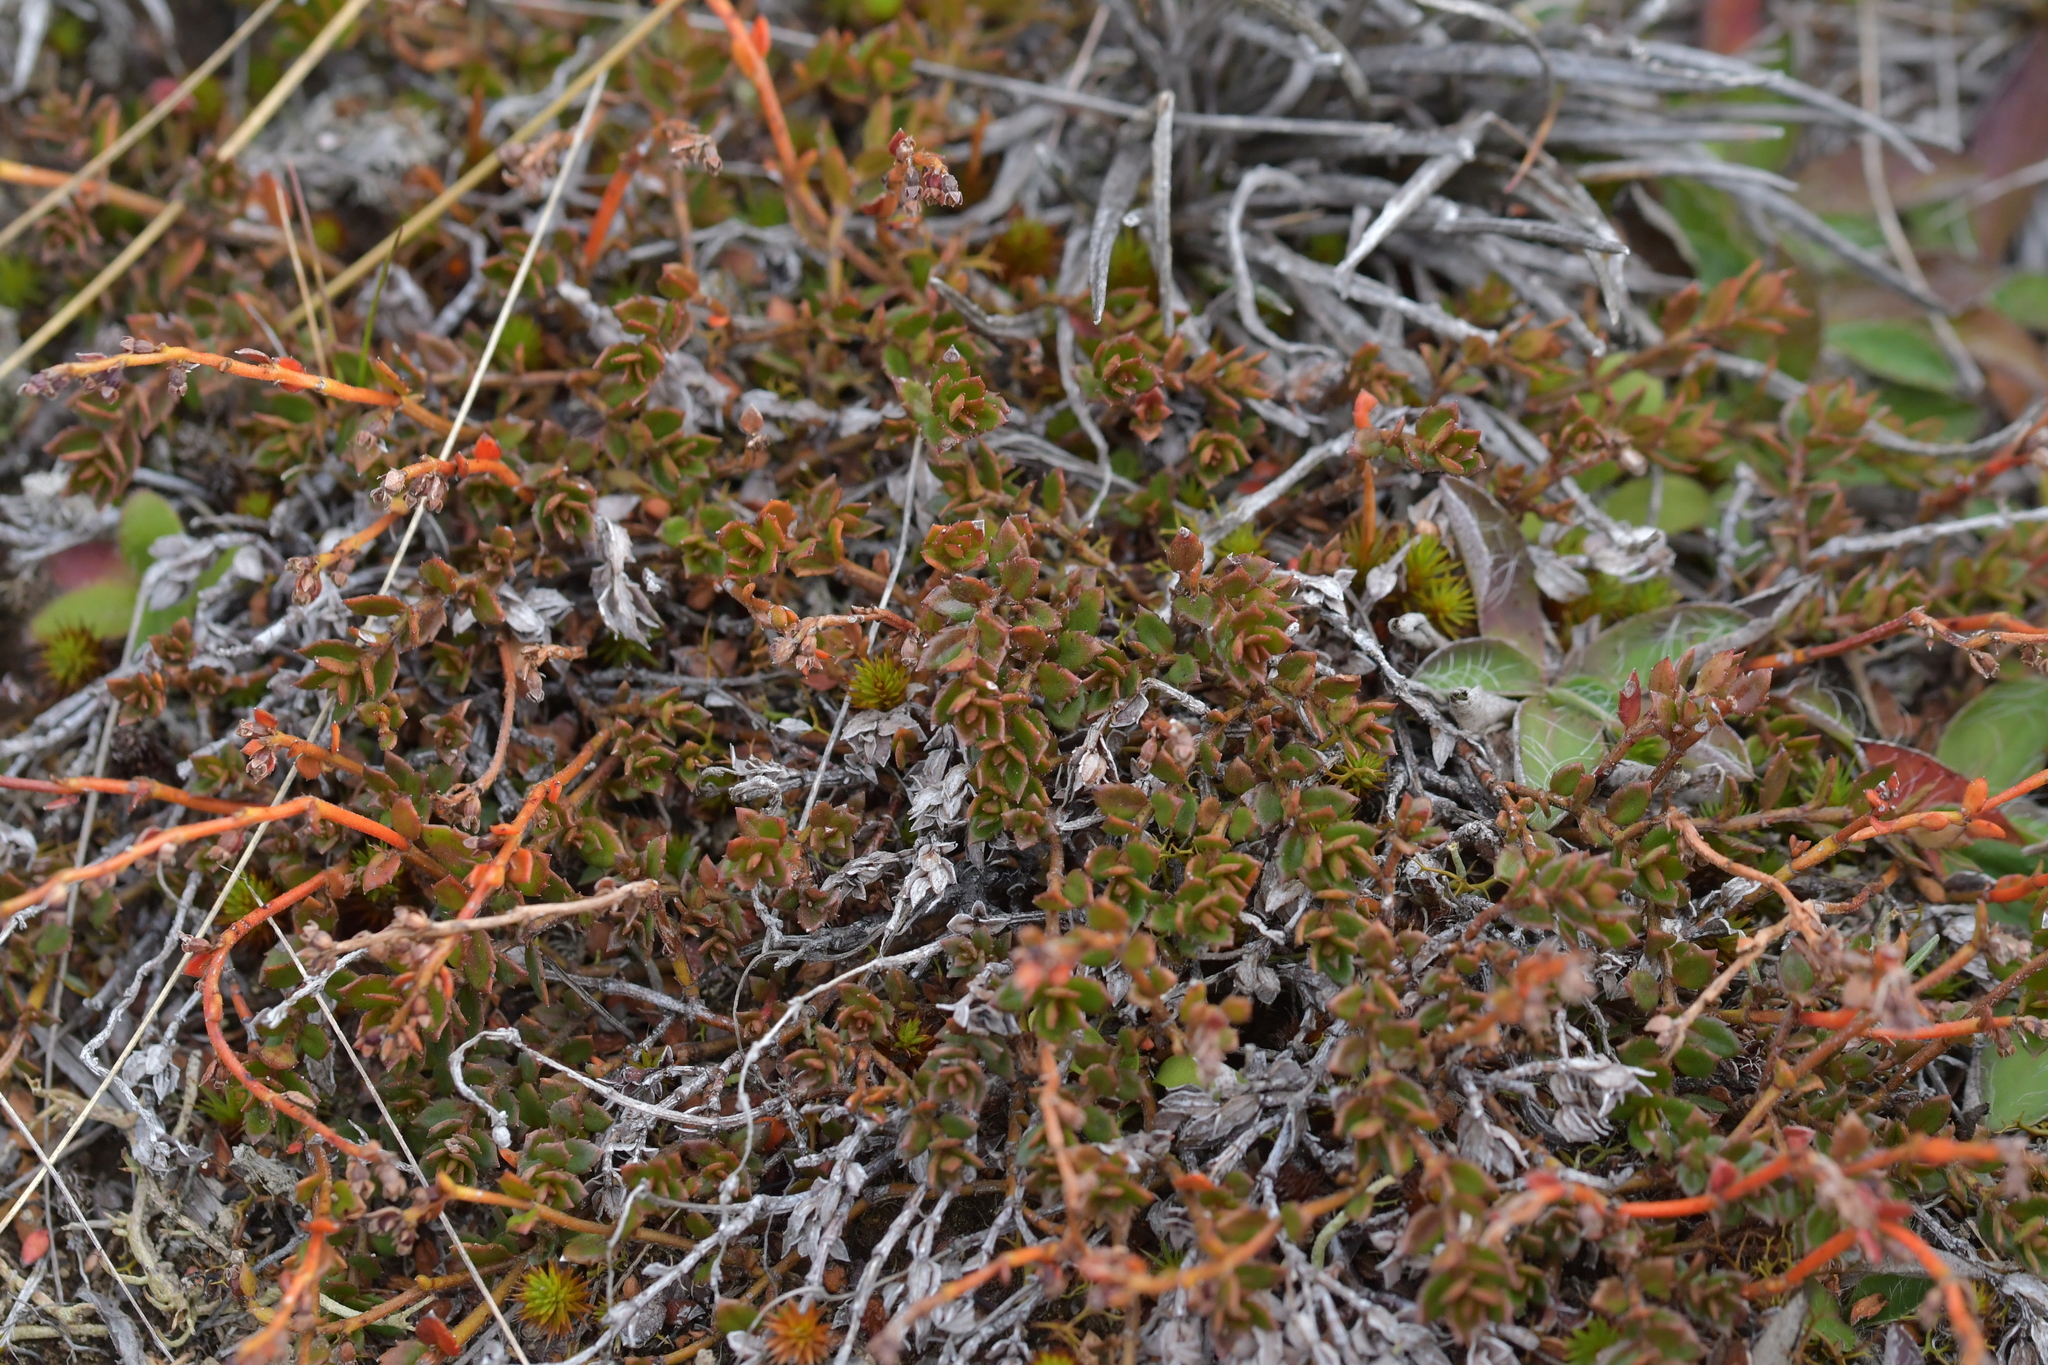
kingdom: Plantae
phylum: Tracheophyta
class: Magnoliopsida
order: Saxifragales
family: Haloragaceae
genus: Gonocarpus
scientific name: Gonocarpus aggregatus
